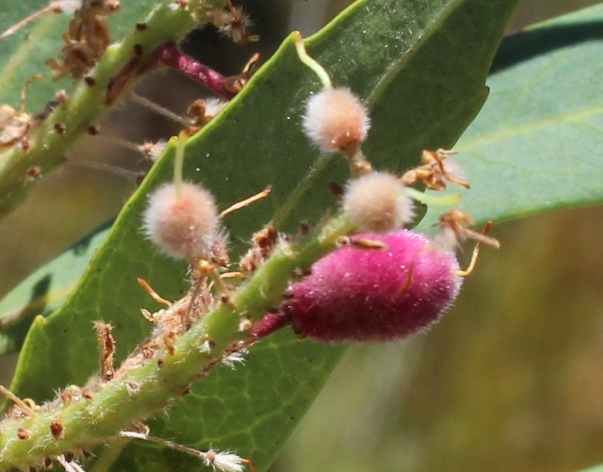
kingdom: Plantae
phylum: Tracheophyta
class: Magnoliopsida
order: Proteales
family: Proteaceae
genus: Brabejum
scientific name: Brabejum stellatifolium
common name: Wild almond
